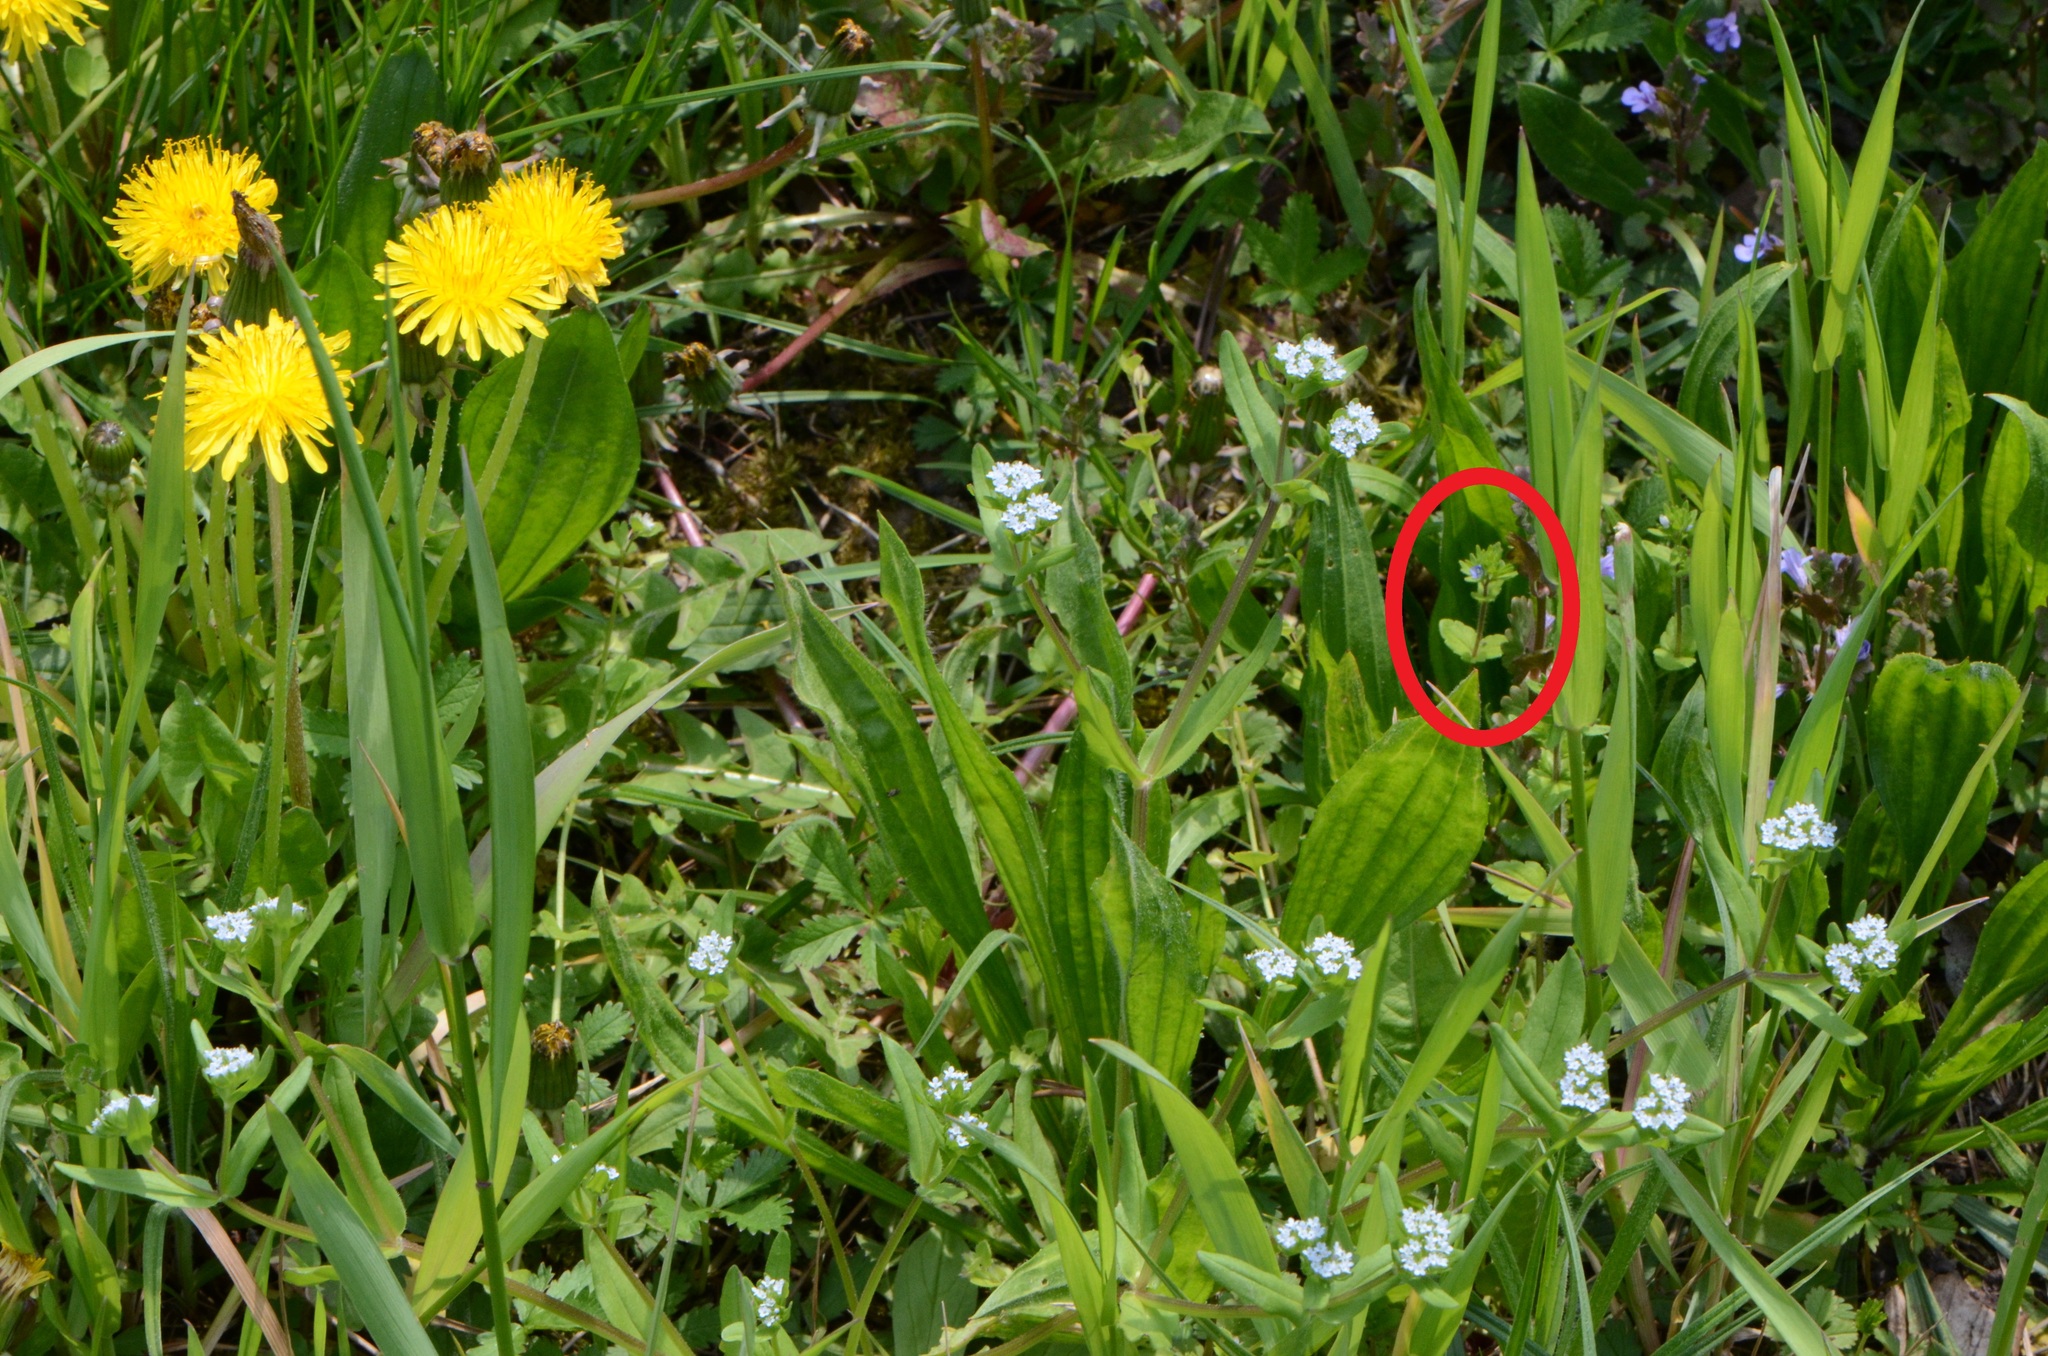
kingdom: Plantae
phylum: Tracheophyta
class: Magnoliopsida
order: Lamiales
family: Plantaginaceae
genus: Veronica
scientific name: Veronica arvensis
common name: Corn speedwell
